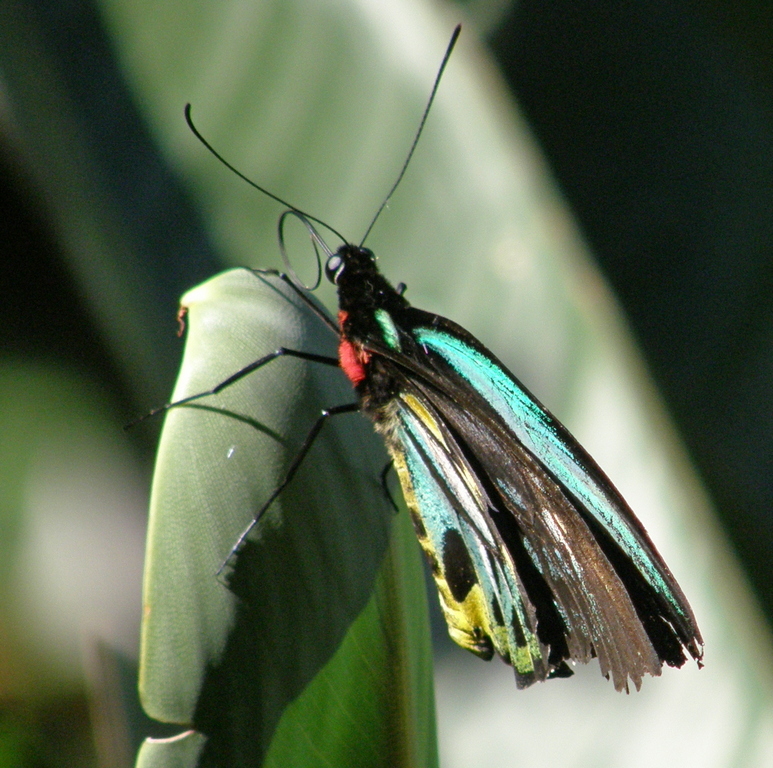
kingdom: Animalia
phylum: Arthropoda
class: Insecta
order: Lepidoptera
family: Papilionidae
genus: Ornithoptera
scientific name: Ornithoptera euphorion
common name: Cairns birdwing
